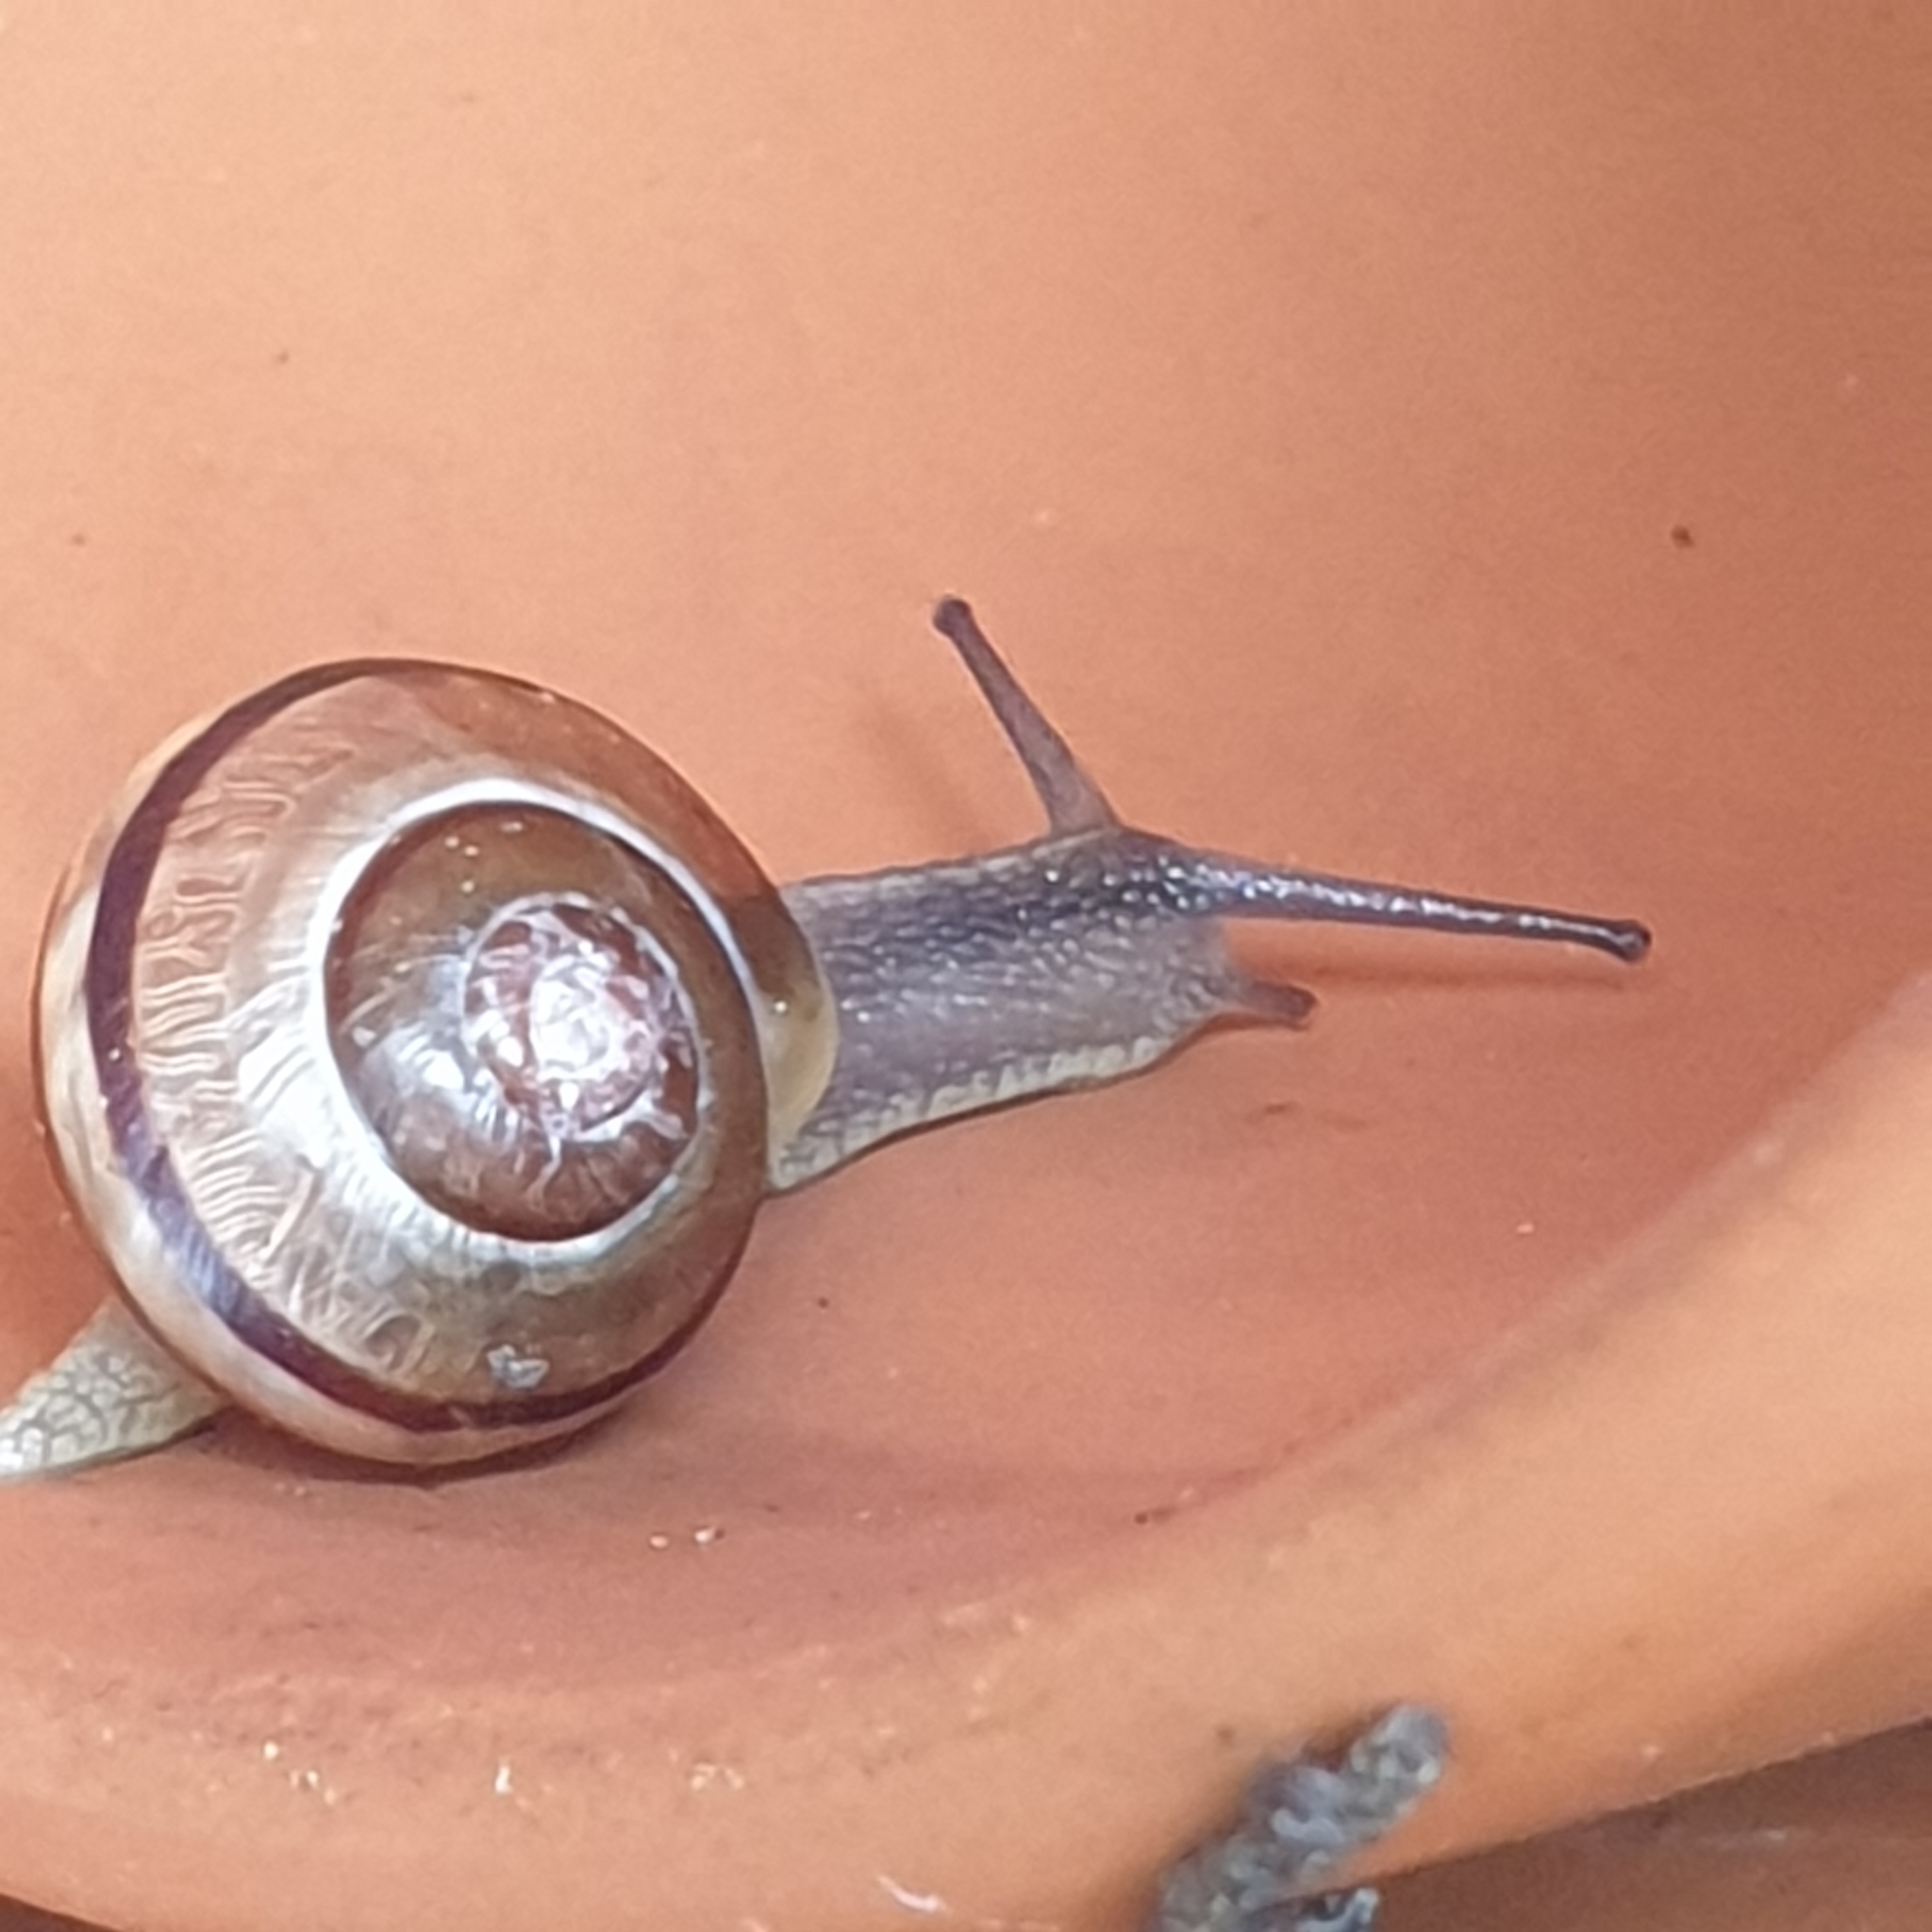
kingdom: Animalia
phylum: Mollusca
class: Gastropoda
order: Stylommatophora
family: Helicidae
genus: Cepaea
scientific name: Cepaea
